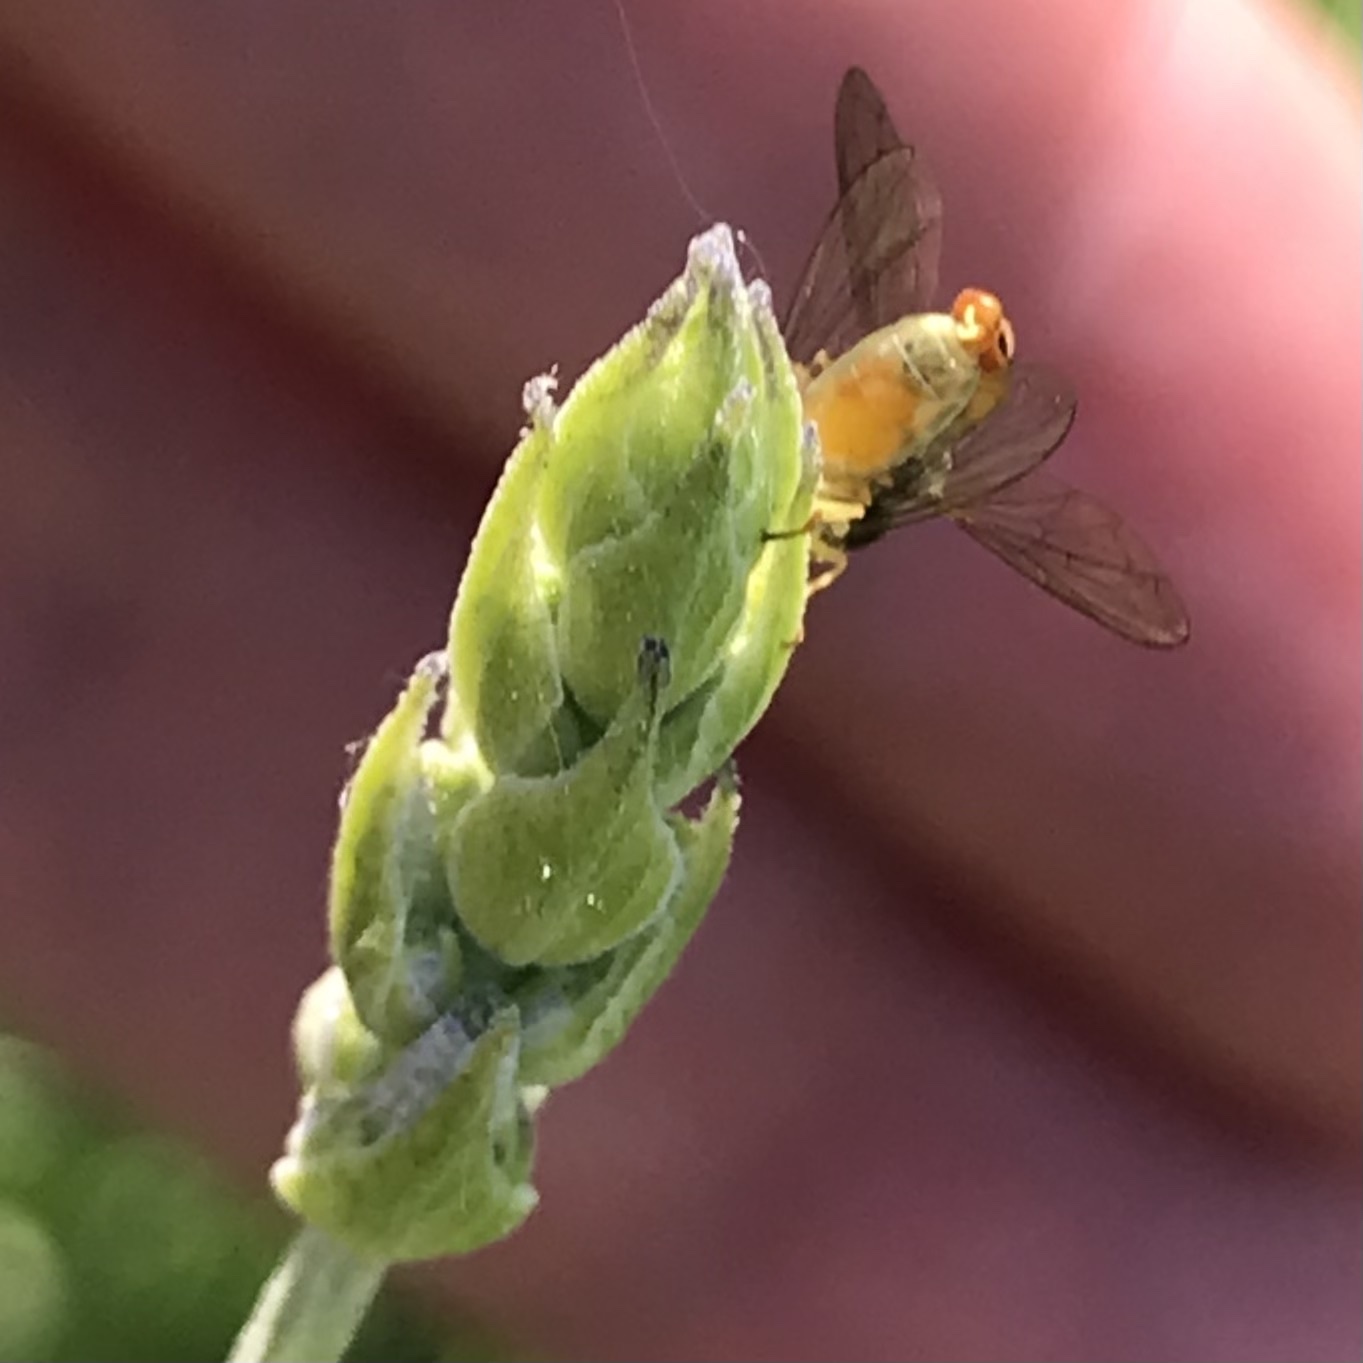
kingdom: Animalia
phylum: Arthropoda
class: Insecta
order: Diptera
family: Syrphidae
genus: Toxomerus
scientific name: Toxomerus marginatus
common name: Syrphid fly
